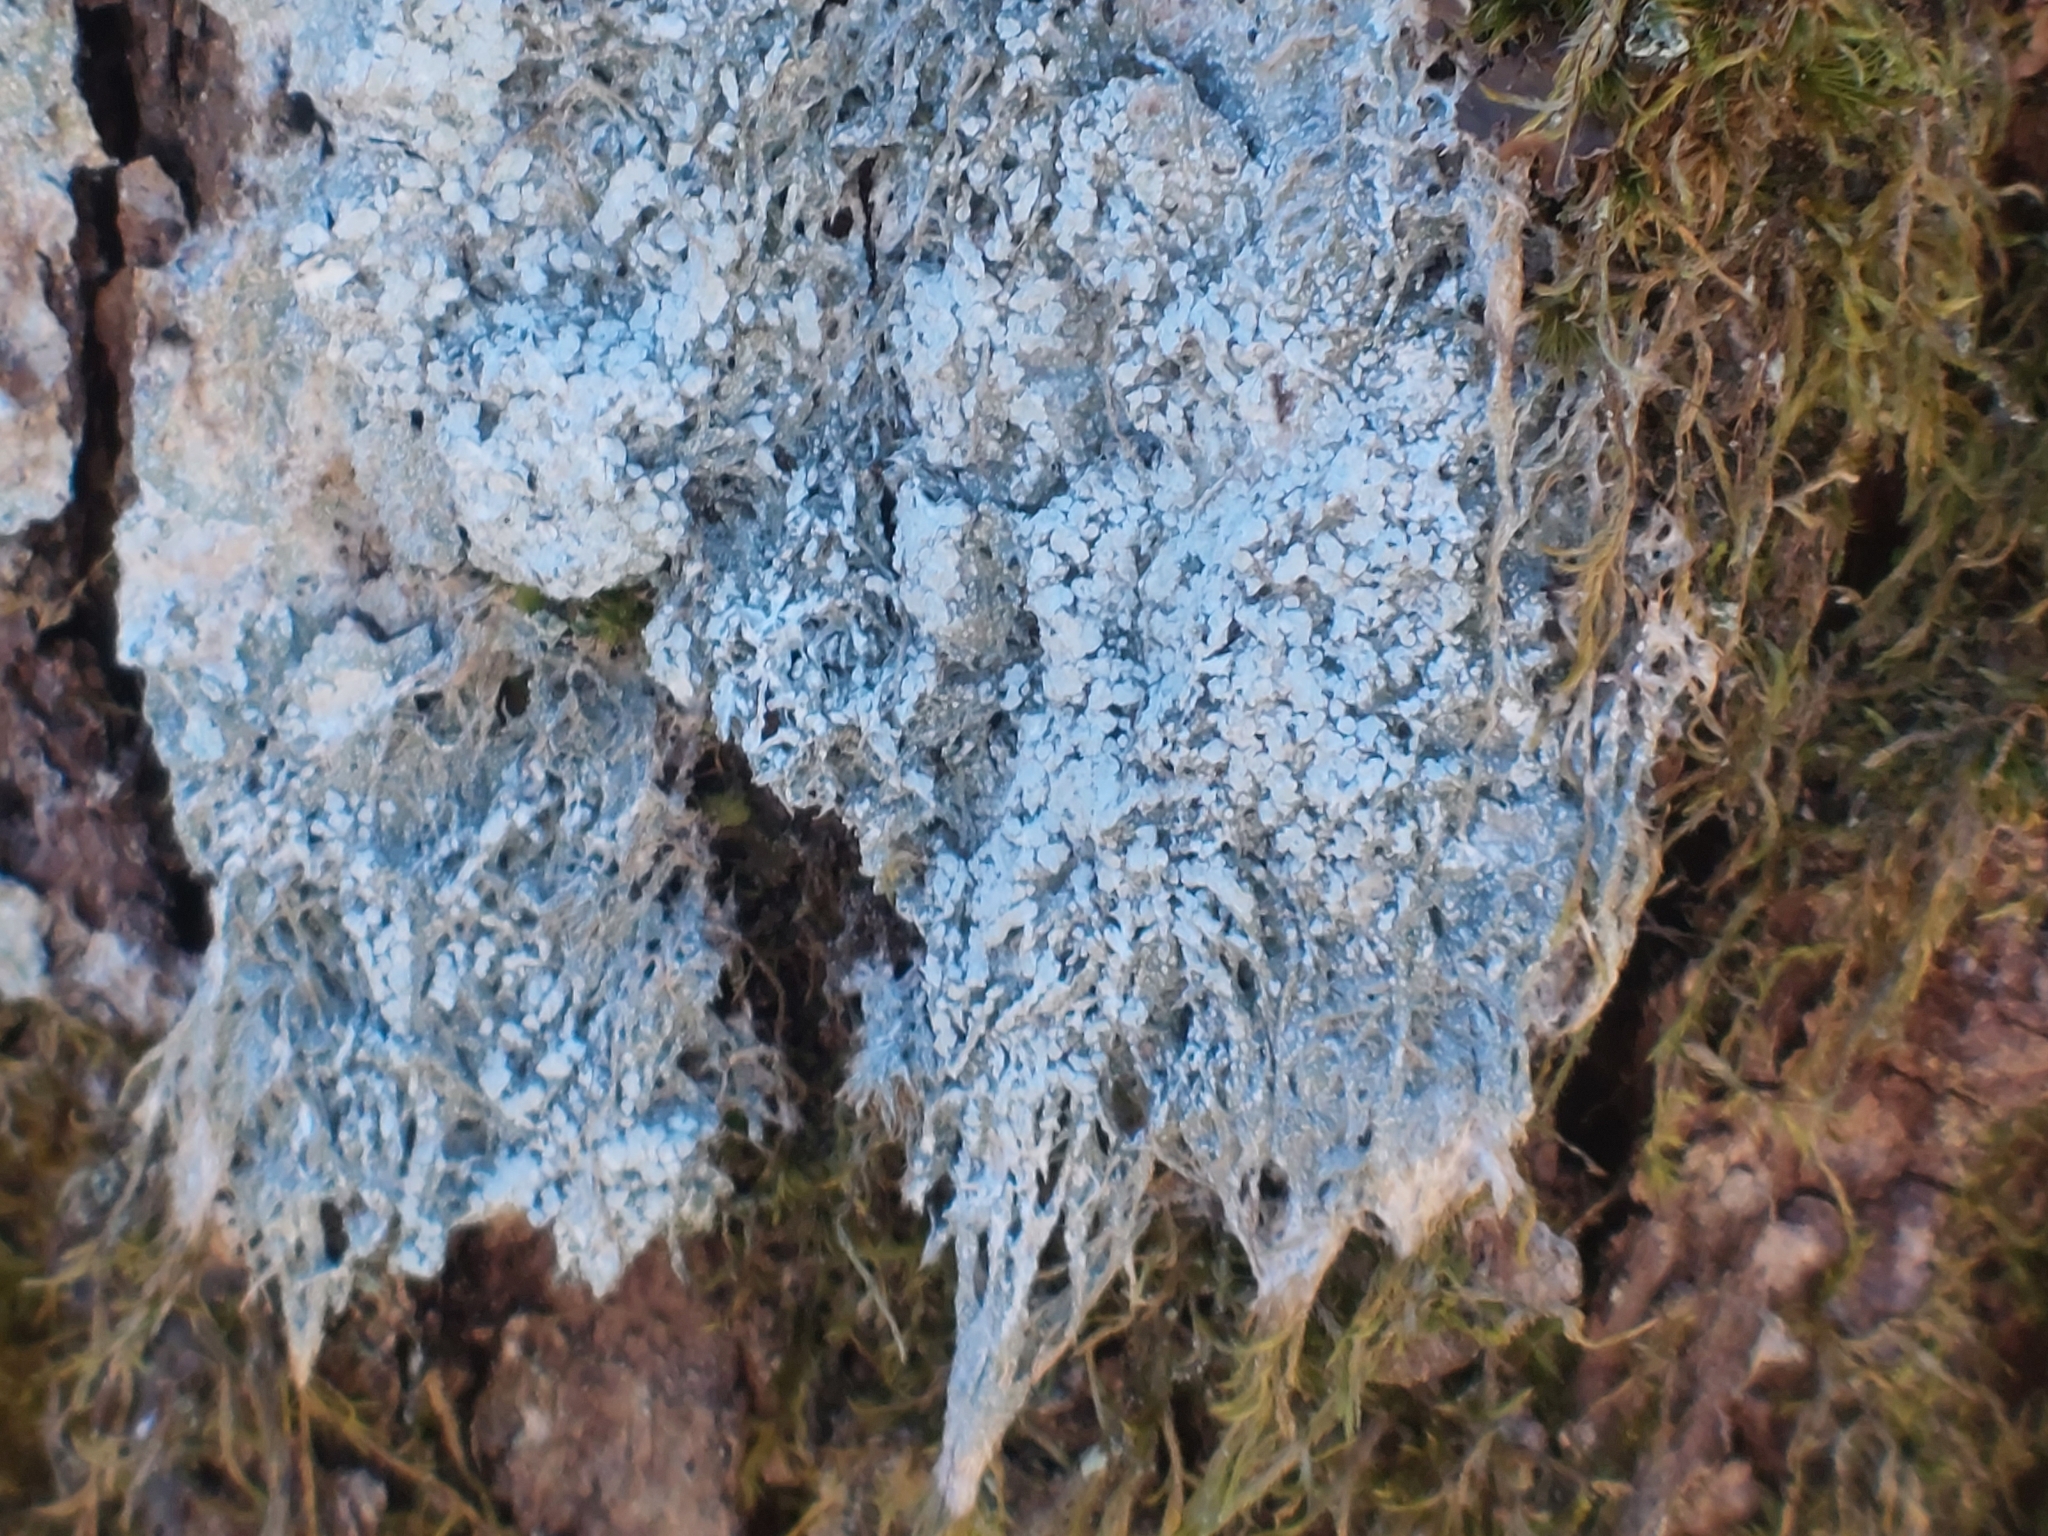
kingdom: Fungi
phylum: Ascomycota
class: Lecanoromycetes
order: Pertusariales
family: Pertusariaceae
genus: Lepra
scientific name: Lepra amara
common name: Bitter wart lichen
